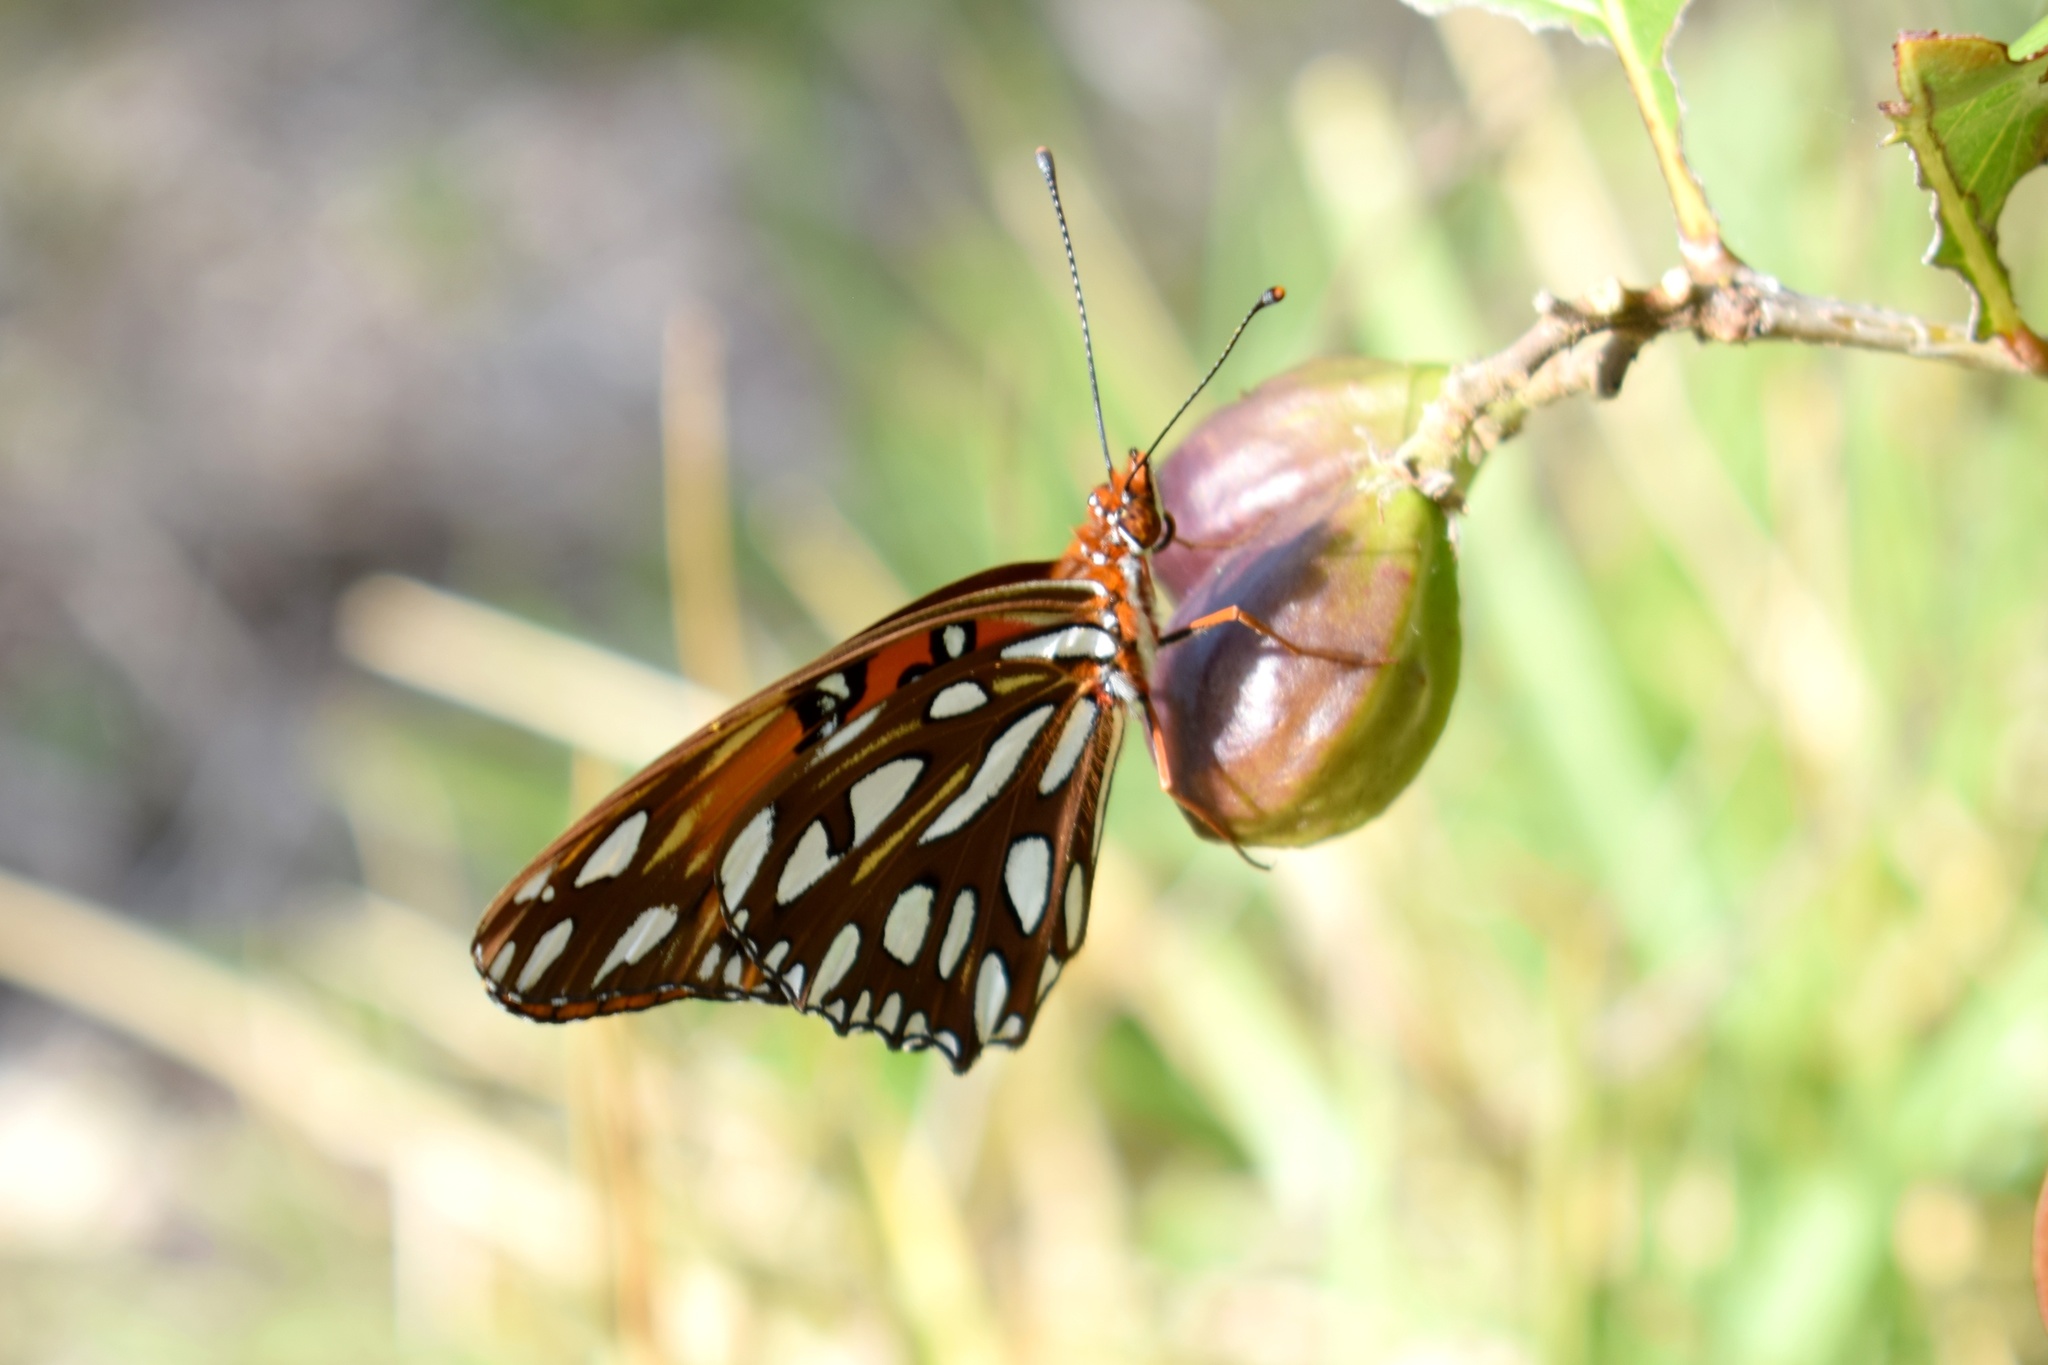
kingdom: Animalia
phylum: Arthropoda
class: Insecta
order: Lepidoptera
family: Nymphalidae
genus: Dione
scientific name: Dione vanillae
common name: Gulf fritillary
